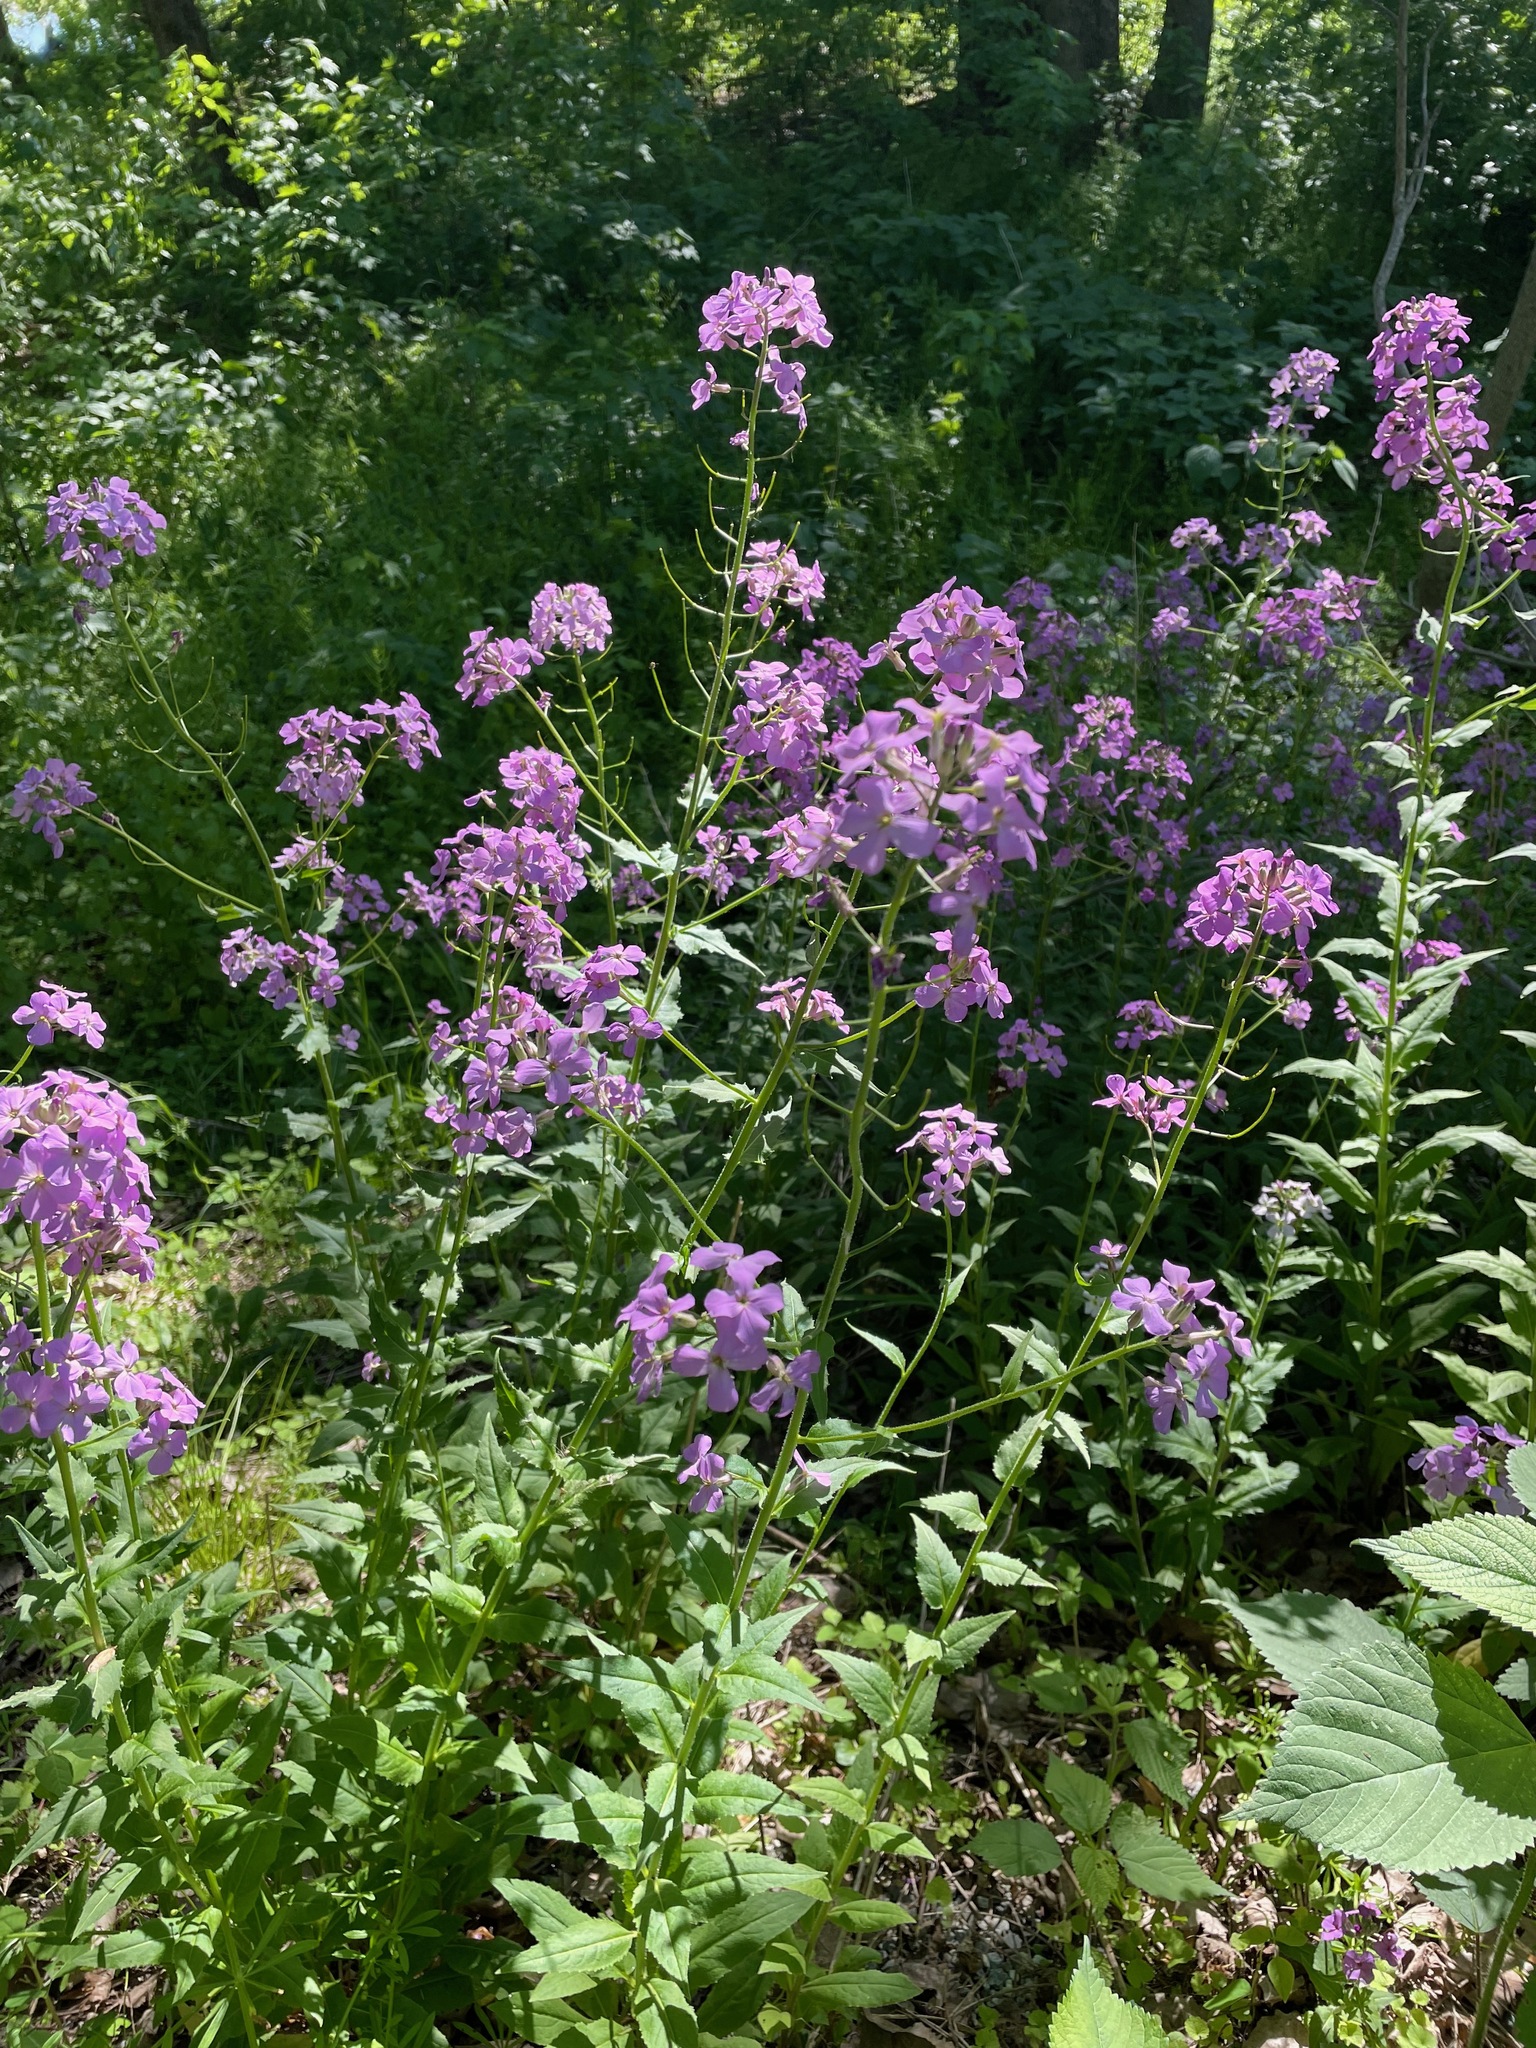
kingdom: Plantae
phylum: Tracheophyta
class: Magnoliopsida
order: Brassicales
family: Brassicaceae
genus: Hesperis
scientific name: Hesperis matronalis
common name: Dame's-violet
